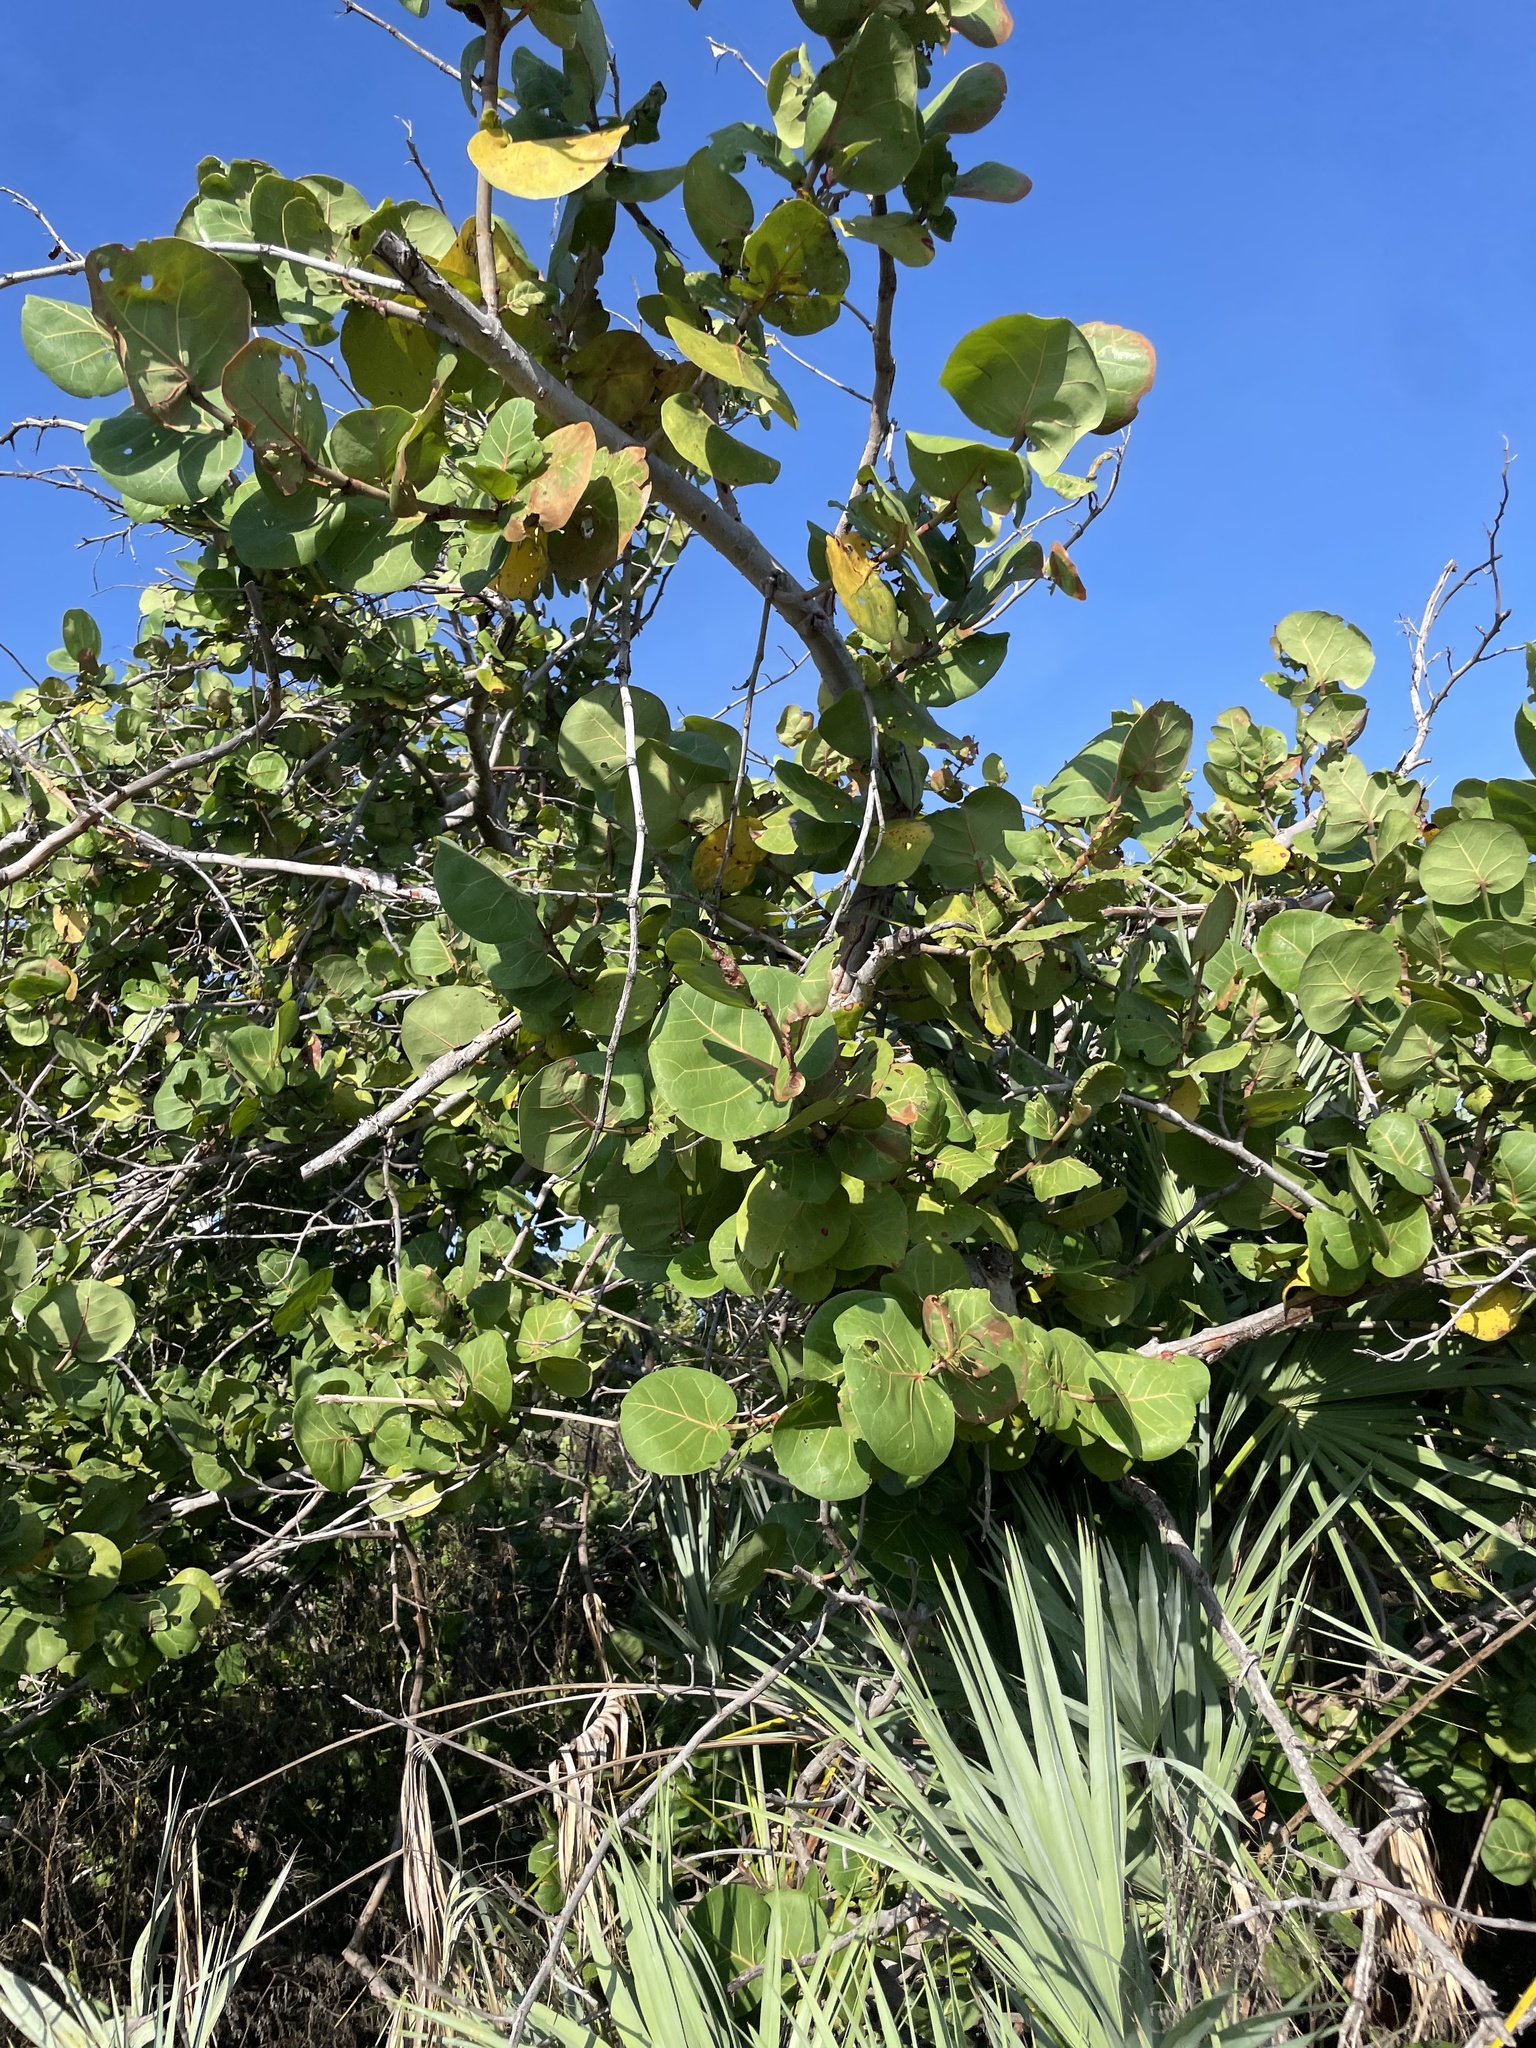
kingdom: Plantae
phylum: Tracheophyta
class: Magnoliopsida
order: Caryophyllales
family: Polygonaceae
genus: Coccoloba
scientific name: Coccoloba uvifera
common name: Seagrape
